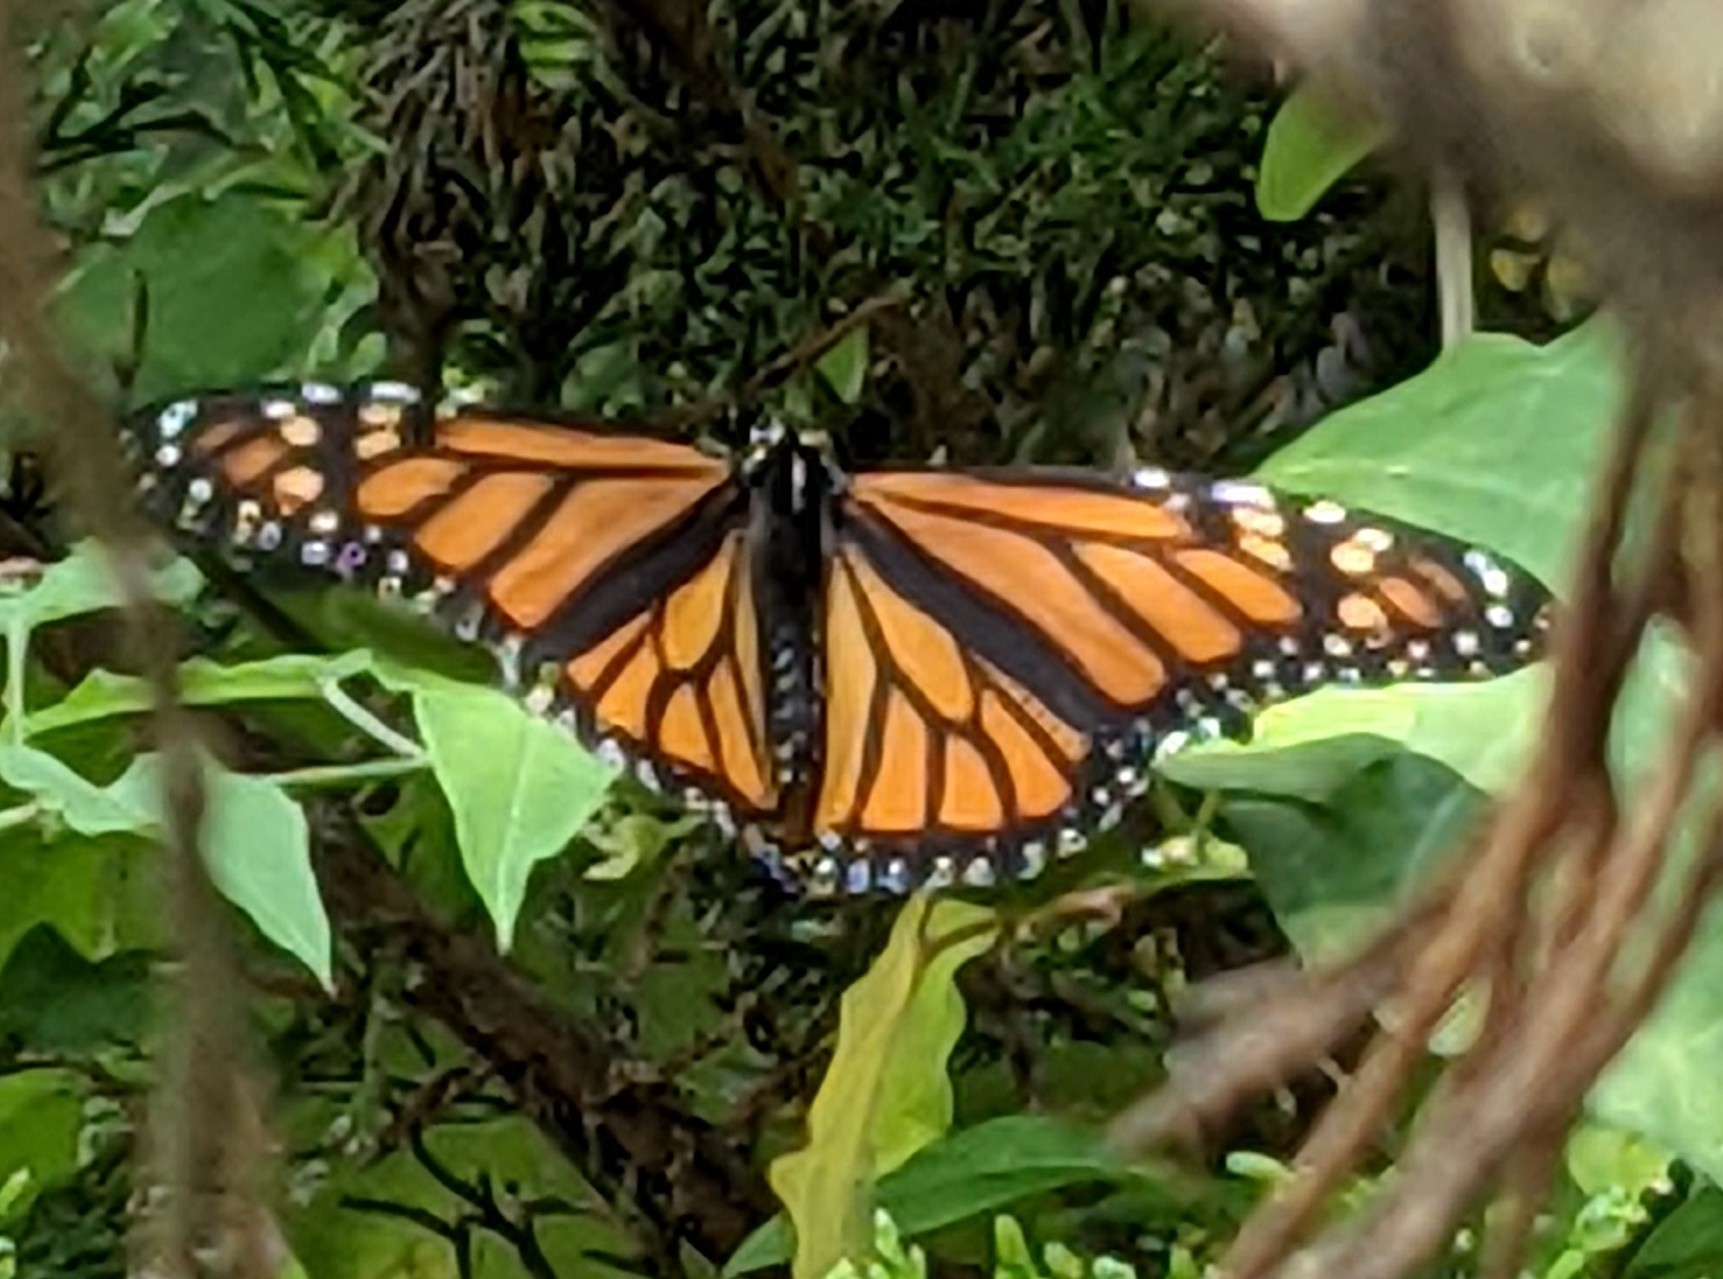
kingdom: Animalia
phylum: Arthropoda
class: Insecta
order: Lepidoptera
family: Nymphalidae
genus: Danaus
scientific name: Danaus plexippus
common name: Monarch
